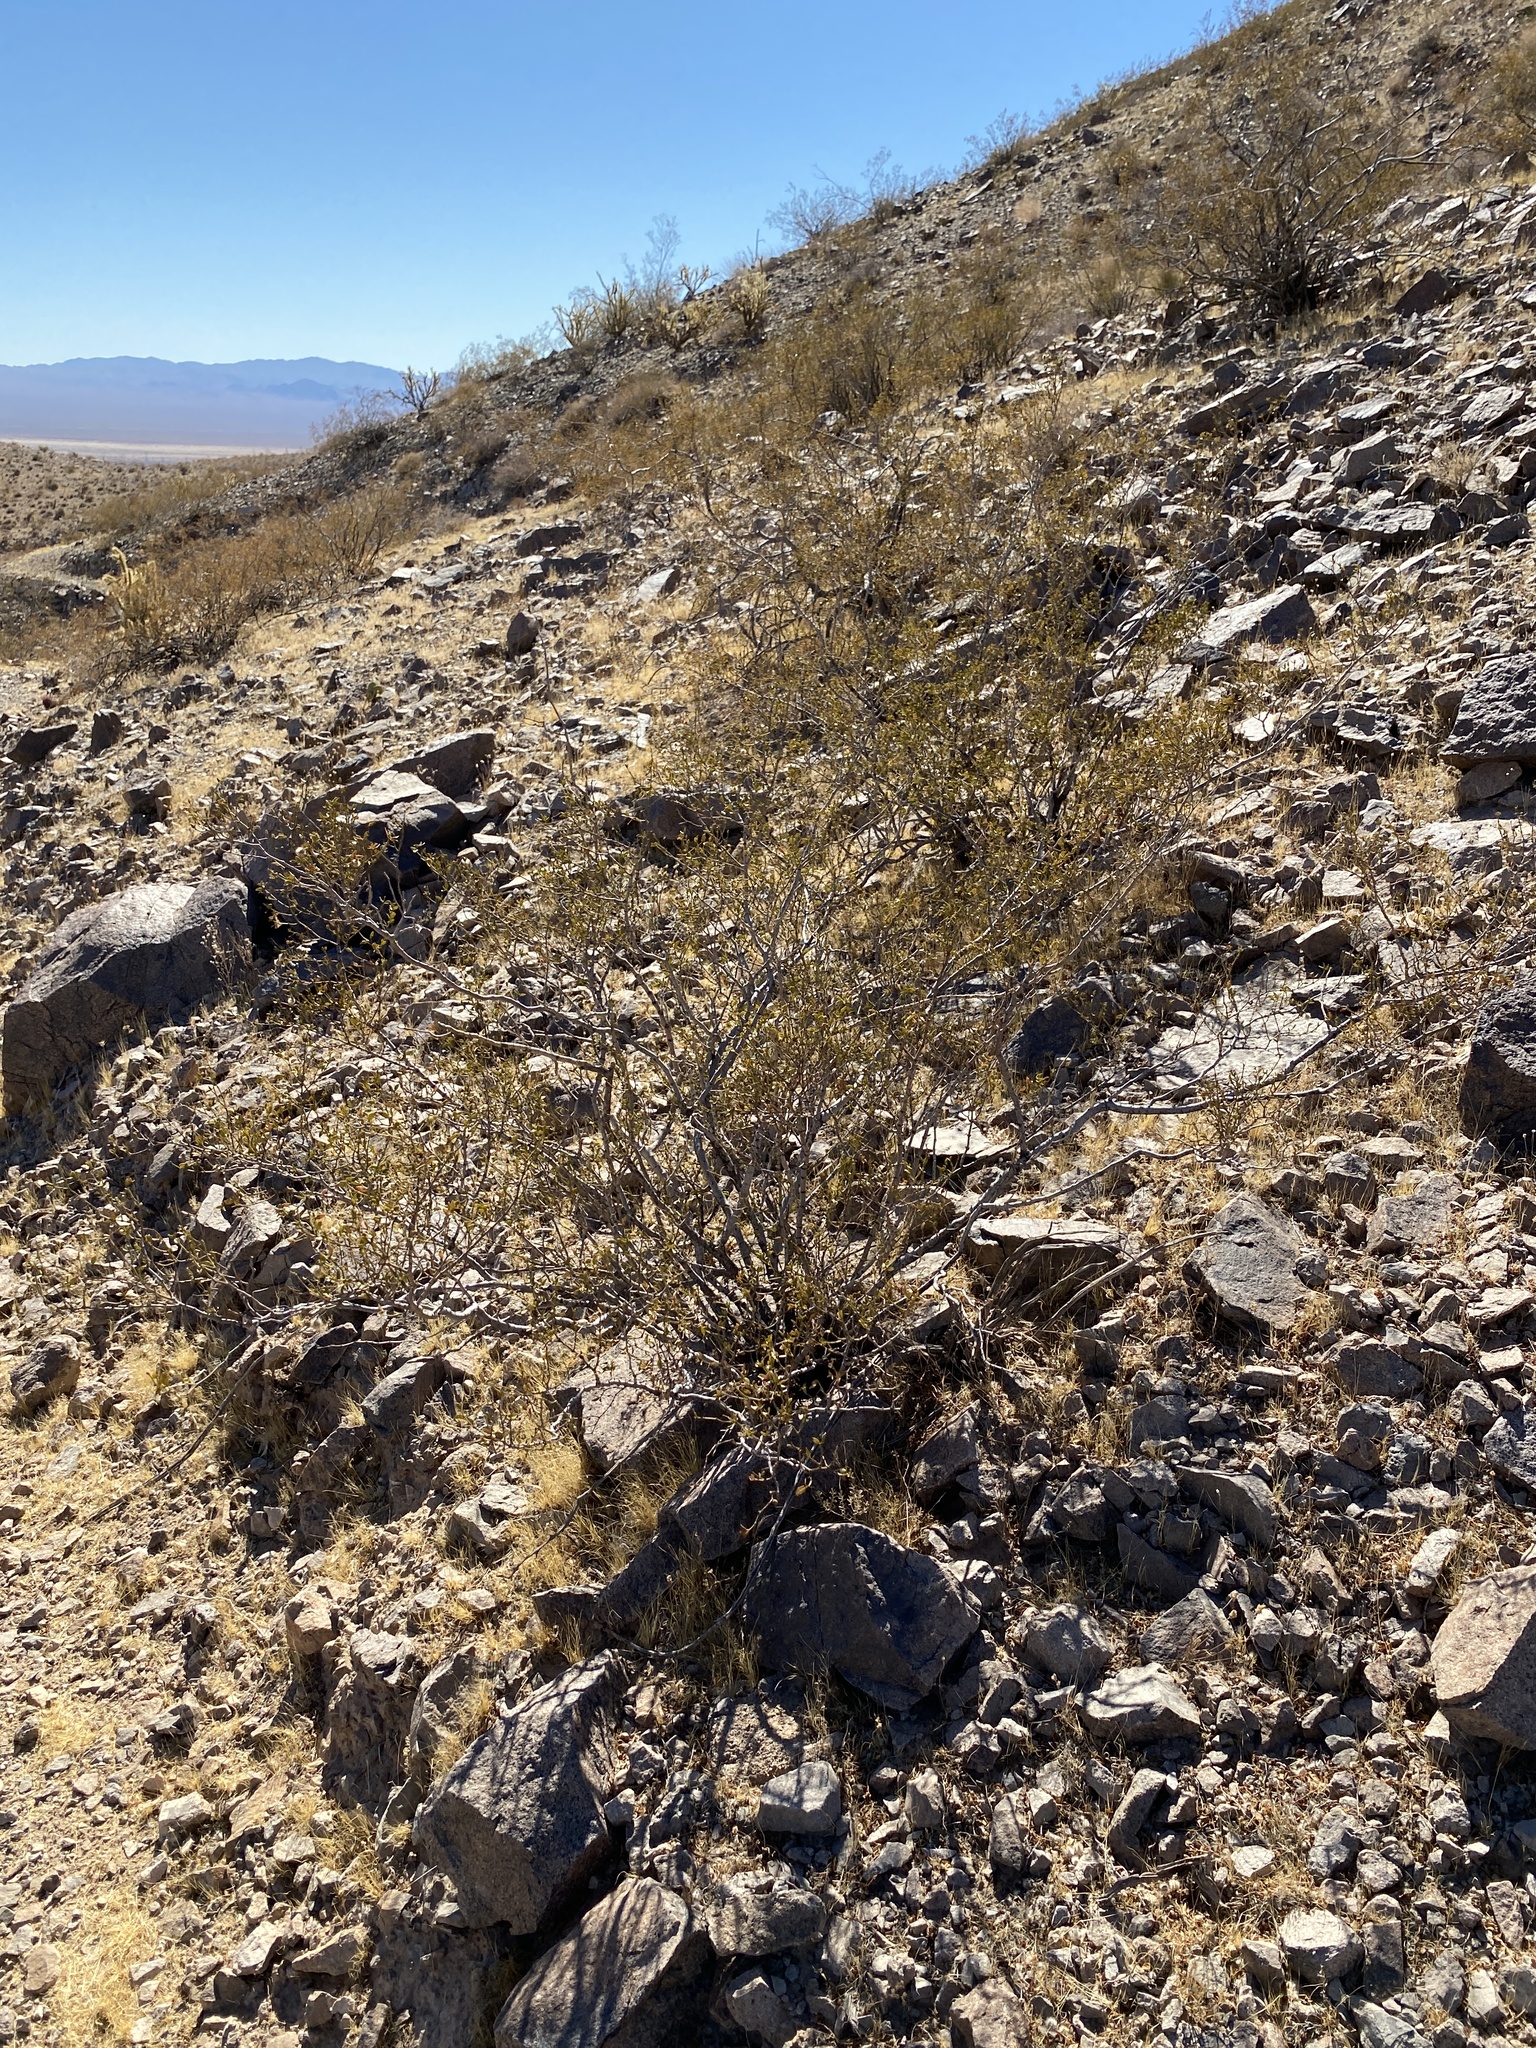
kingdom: Plantae
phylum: Tracheophyta
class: Magnoliopsida
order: Zygophyllales
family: Zygophyllaceae
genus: Larrea
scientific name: Larrea tridentata
